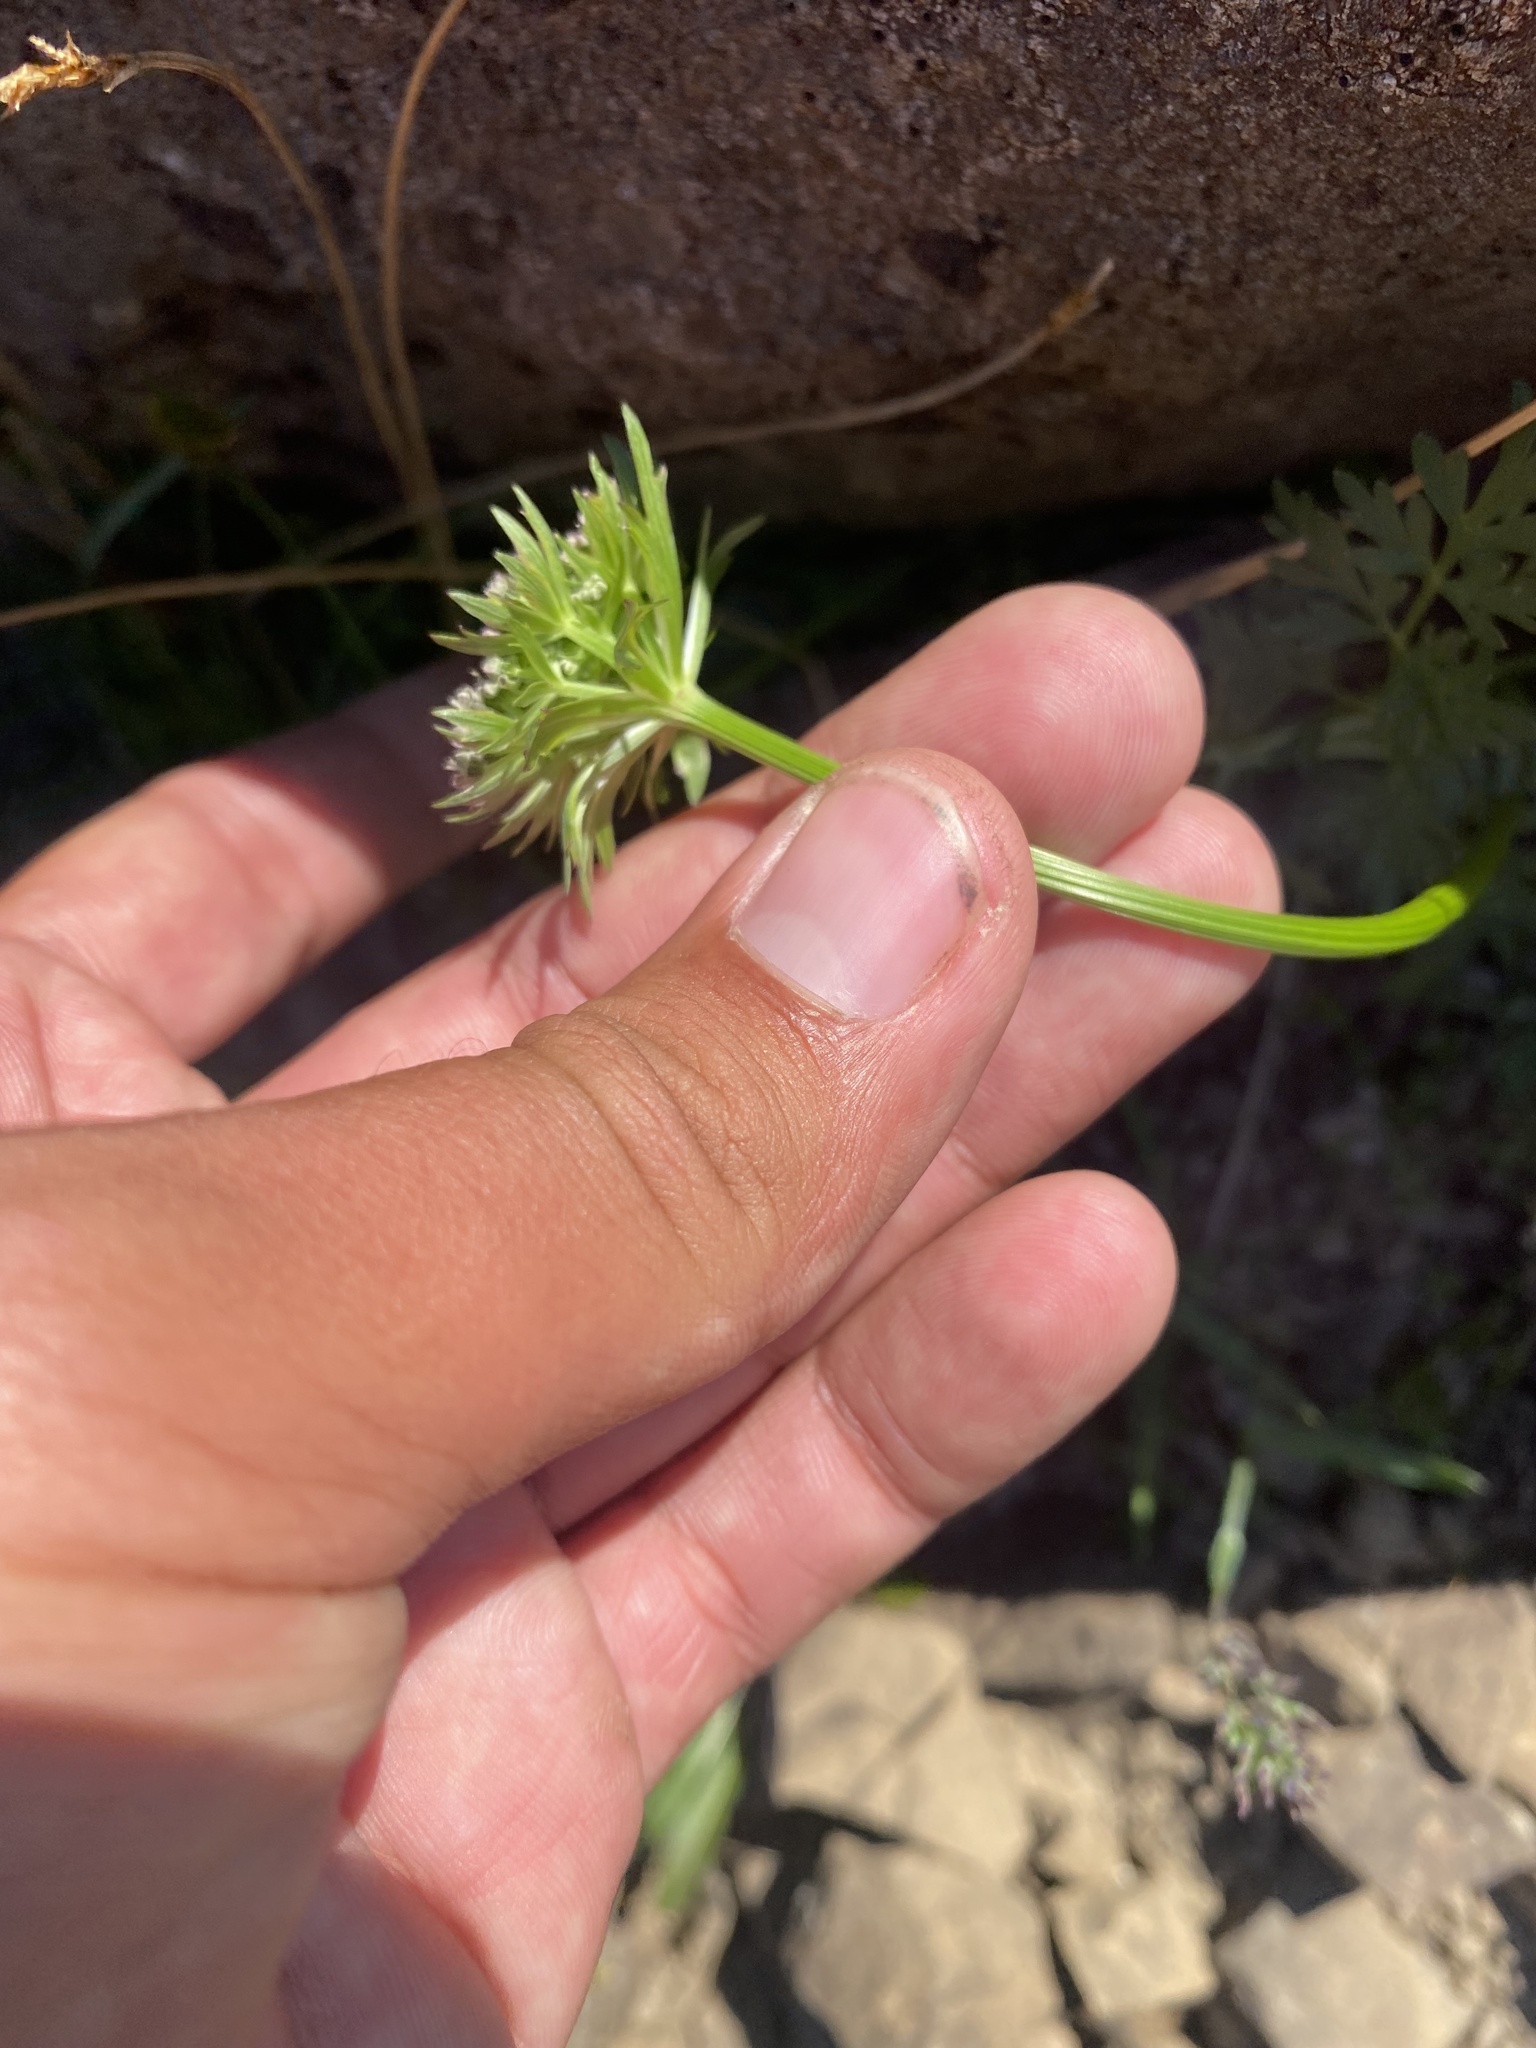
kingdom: Plantae
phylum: Tracheophyta
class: Magnoliopsida
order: Apiales
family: Apiaceae
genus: Pachypleurum
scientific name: Pachypleurum mutellinoides
